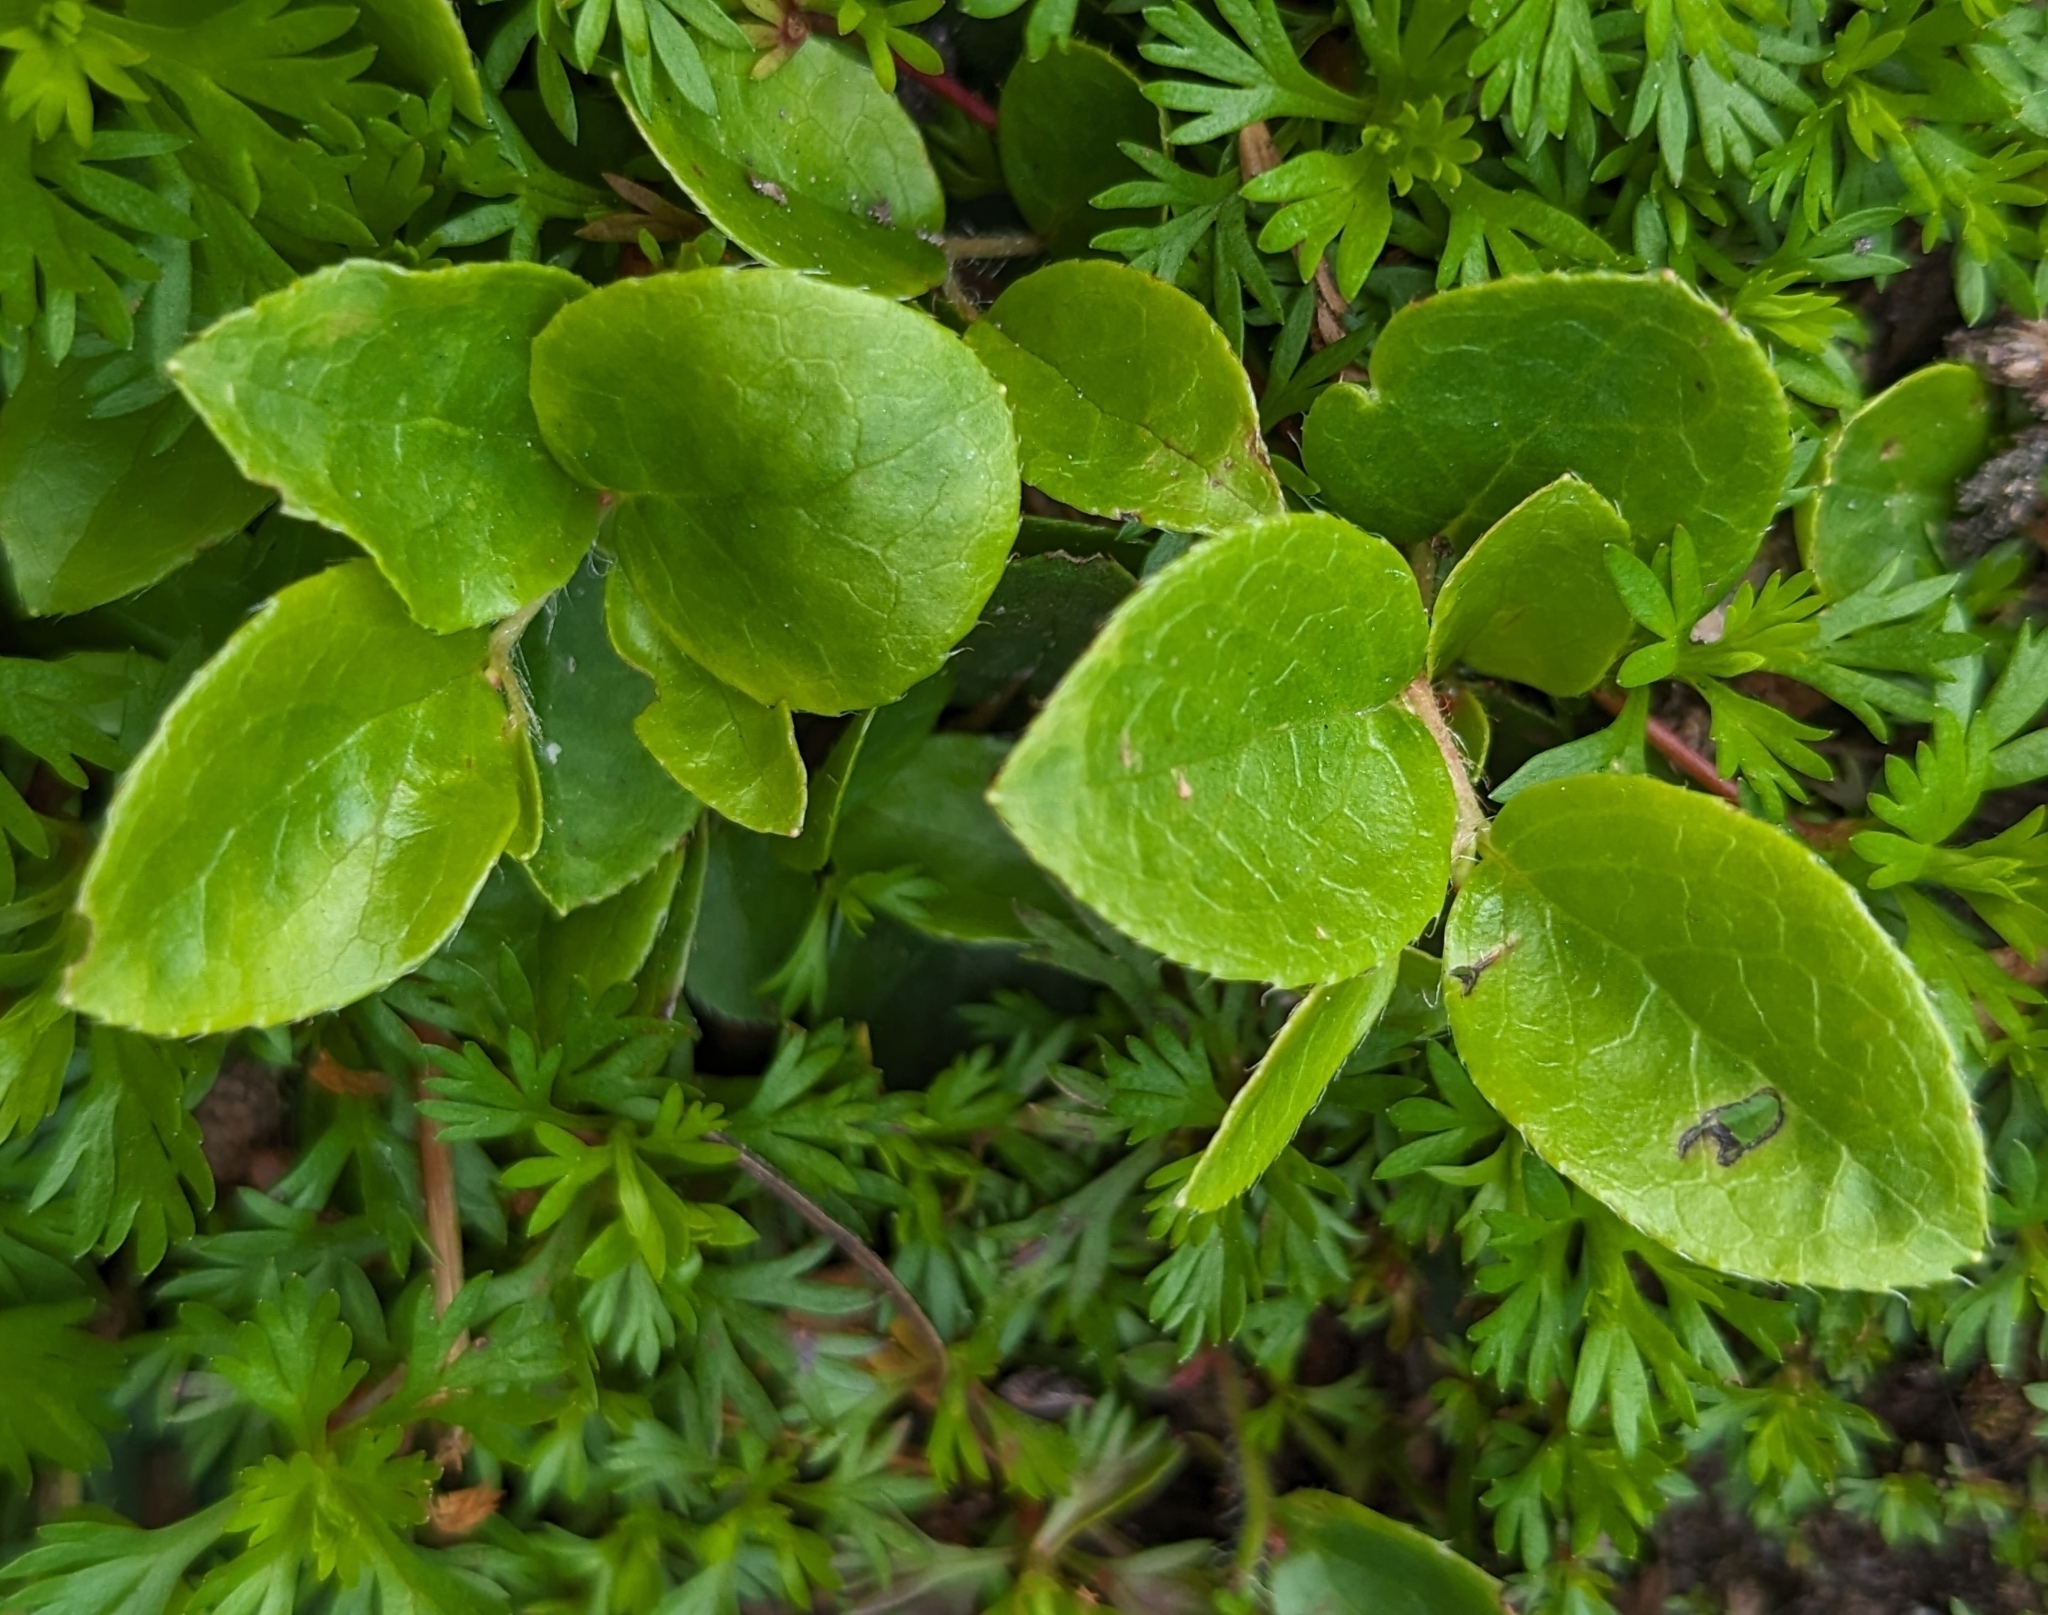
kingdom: Plantae
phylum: Tracheophyta
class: Magnoliopsida
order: Ericales
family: Ericaceae
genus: Gaultheria
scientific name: Gaultheria ovatifolia
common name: Oregon wintergreen
